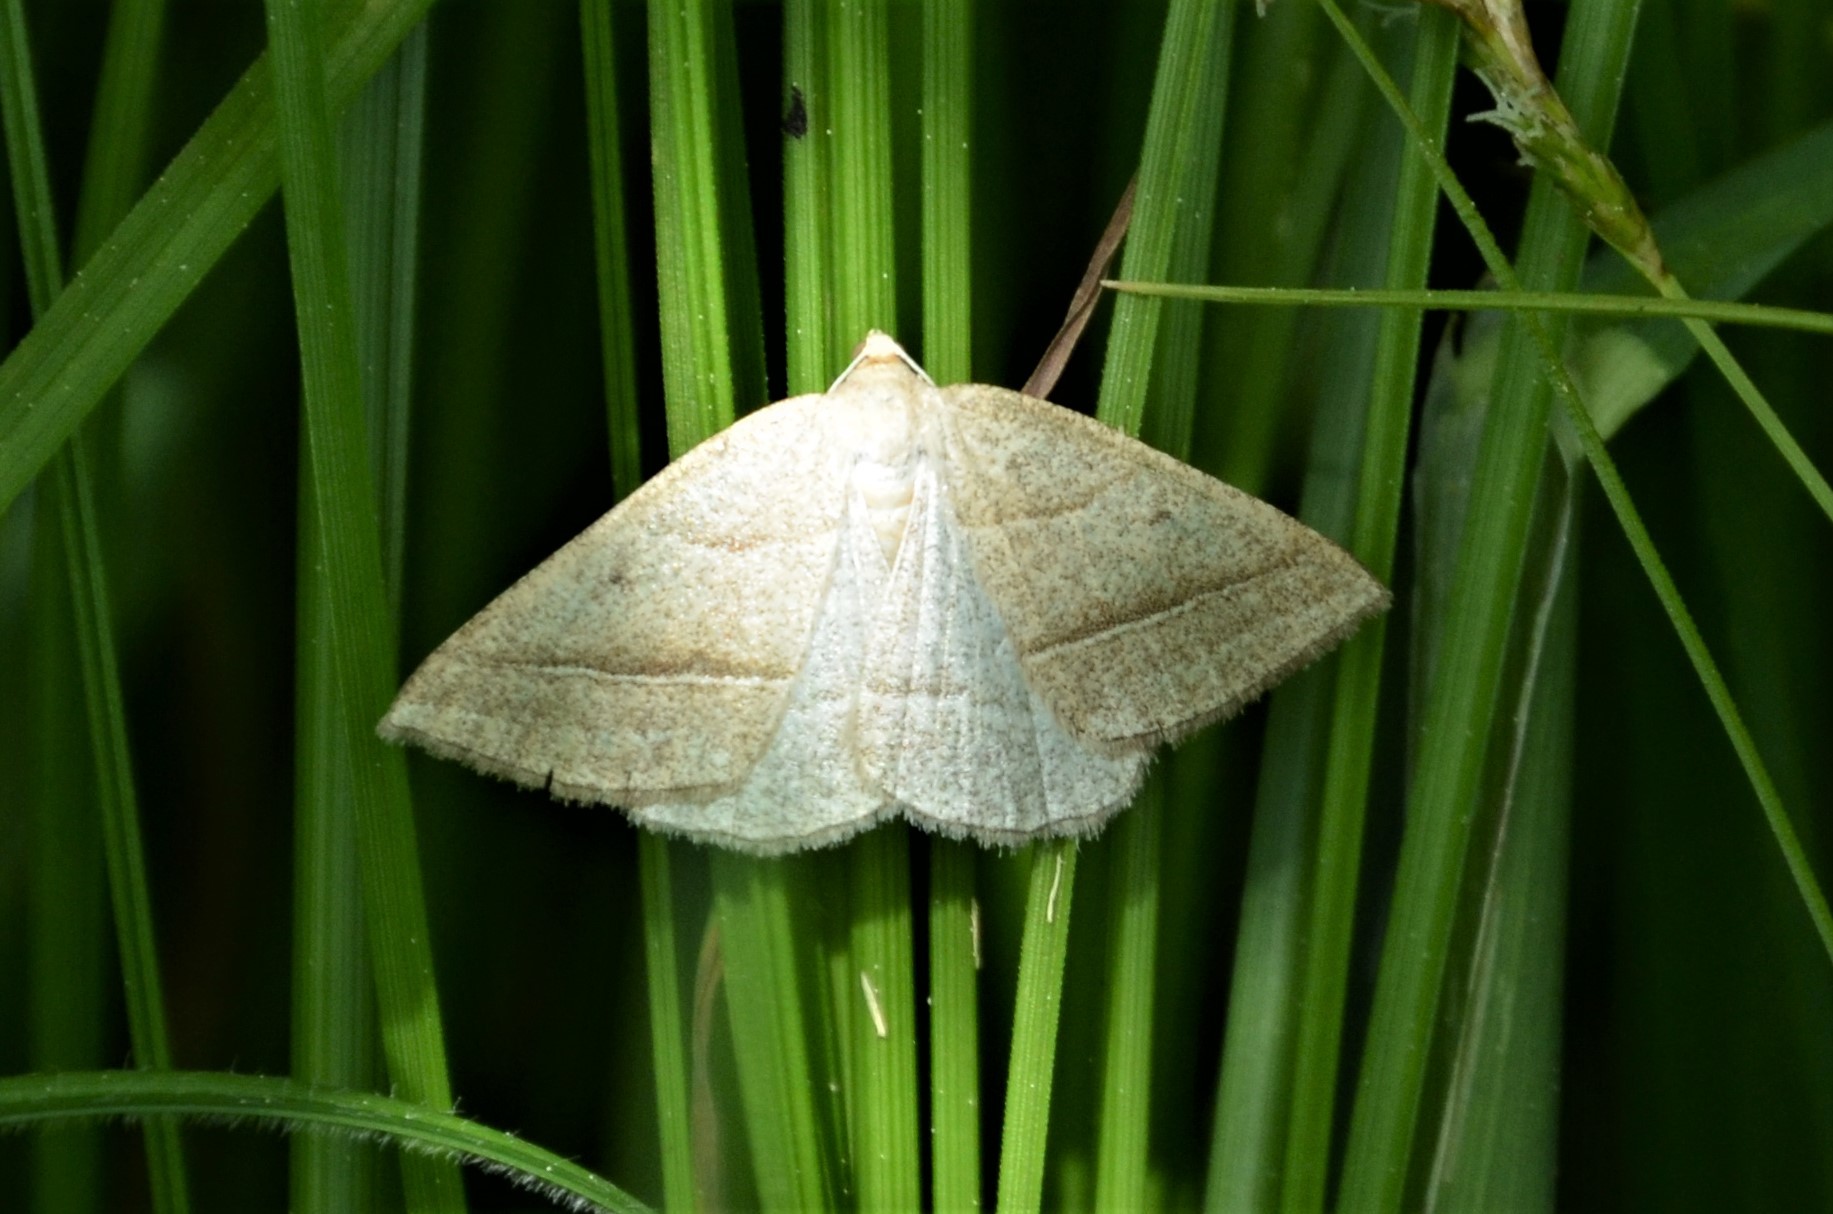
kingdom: Animalia
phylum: Arthropoda
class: Insecta
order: Lepidoptera
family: Pterophoridae
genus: Pterophorus
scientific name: Pterophorus Petrophora chlorosata
